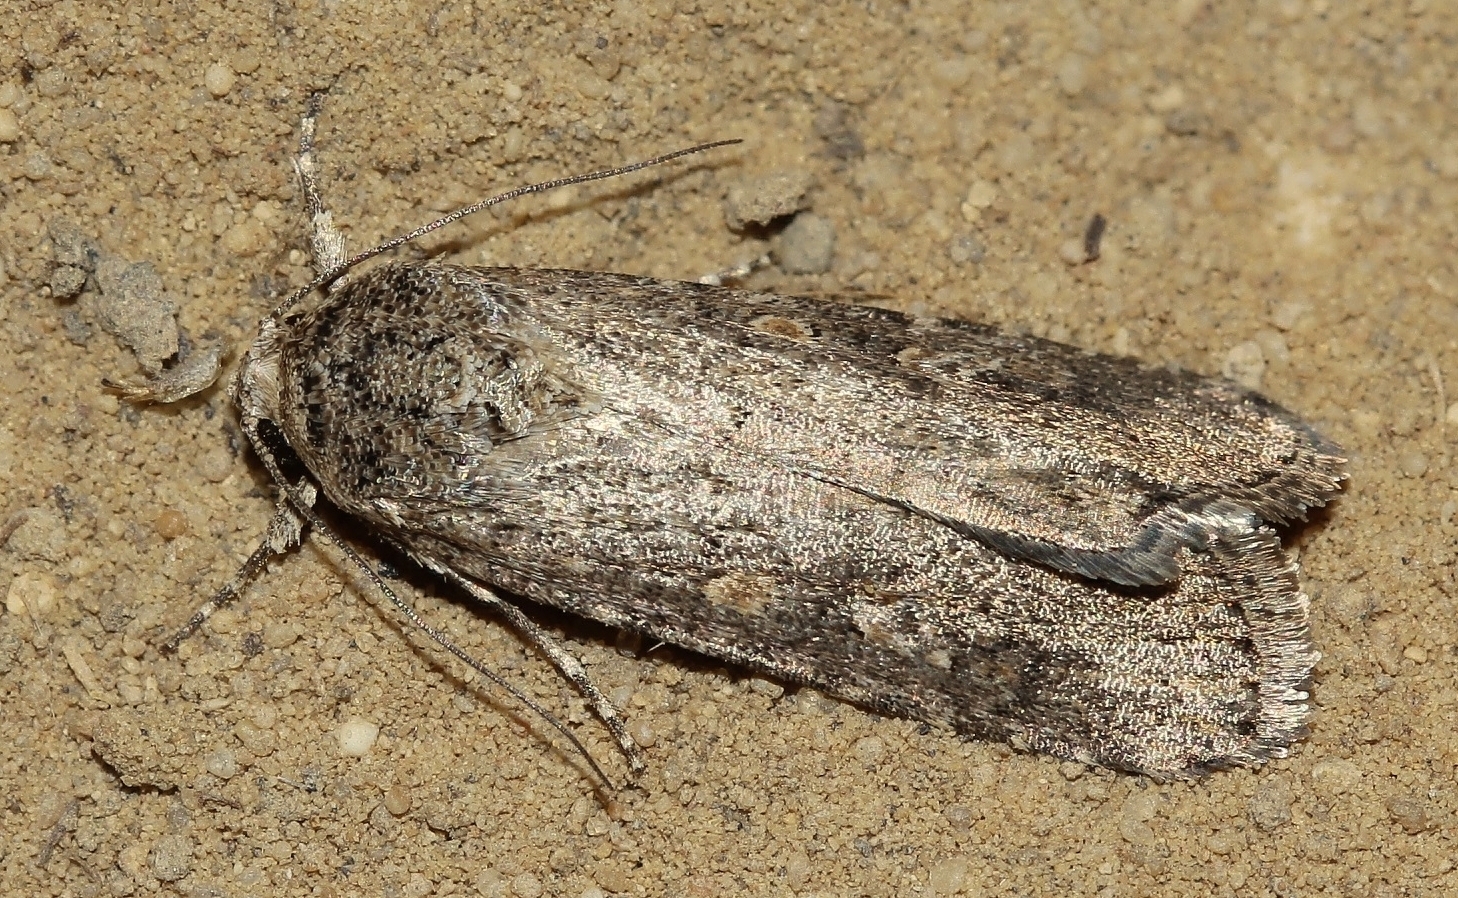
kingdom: Animalia
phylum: Arthropoda
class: Insecta
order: Lepidoptera
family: Noctuidae
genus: Spodoptera
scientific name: Spodoptera exigua
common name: Beet armyworm
